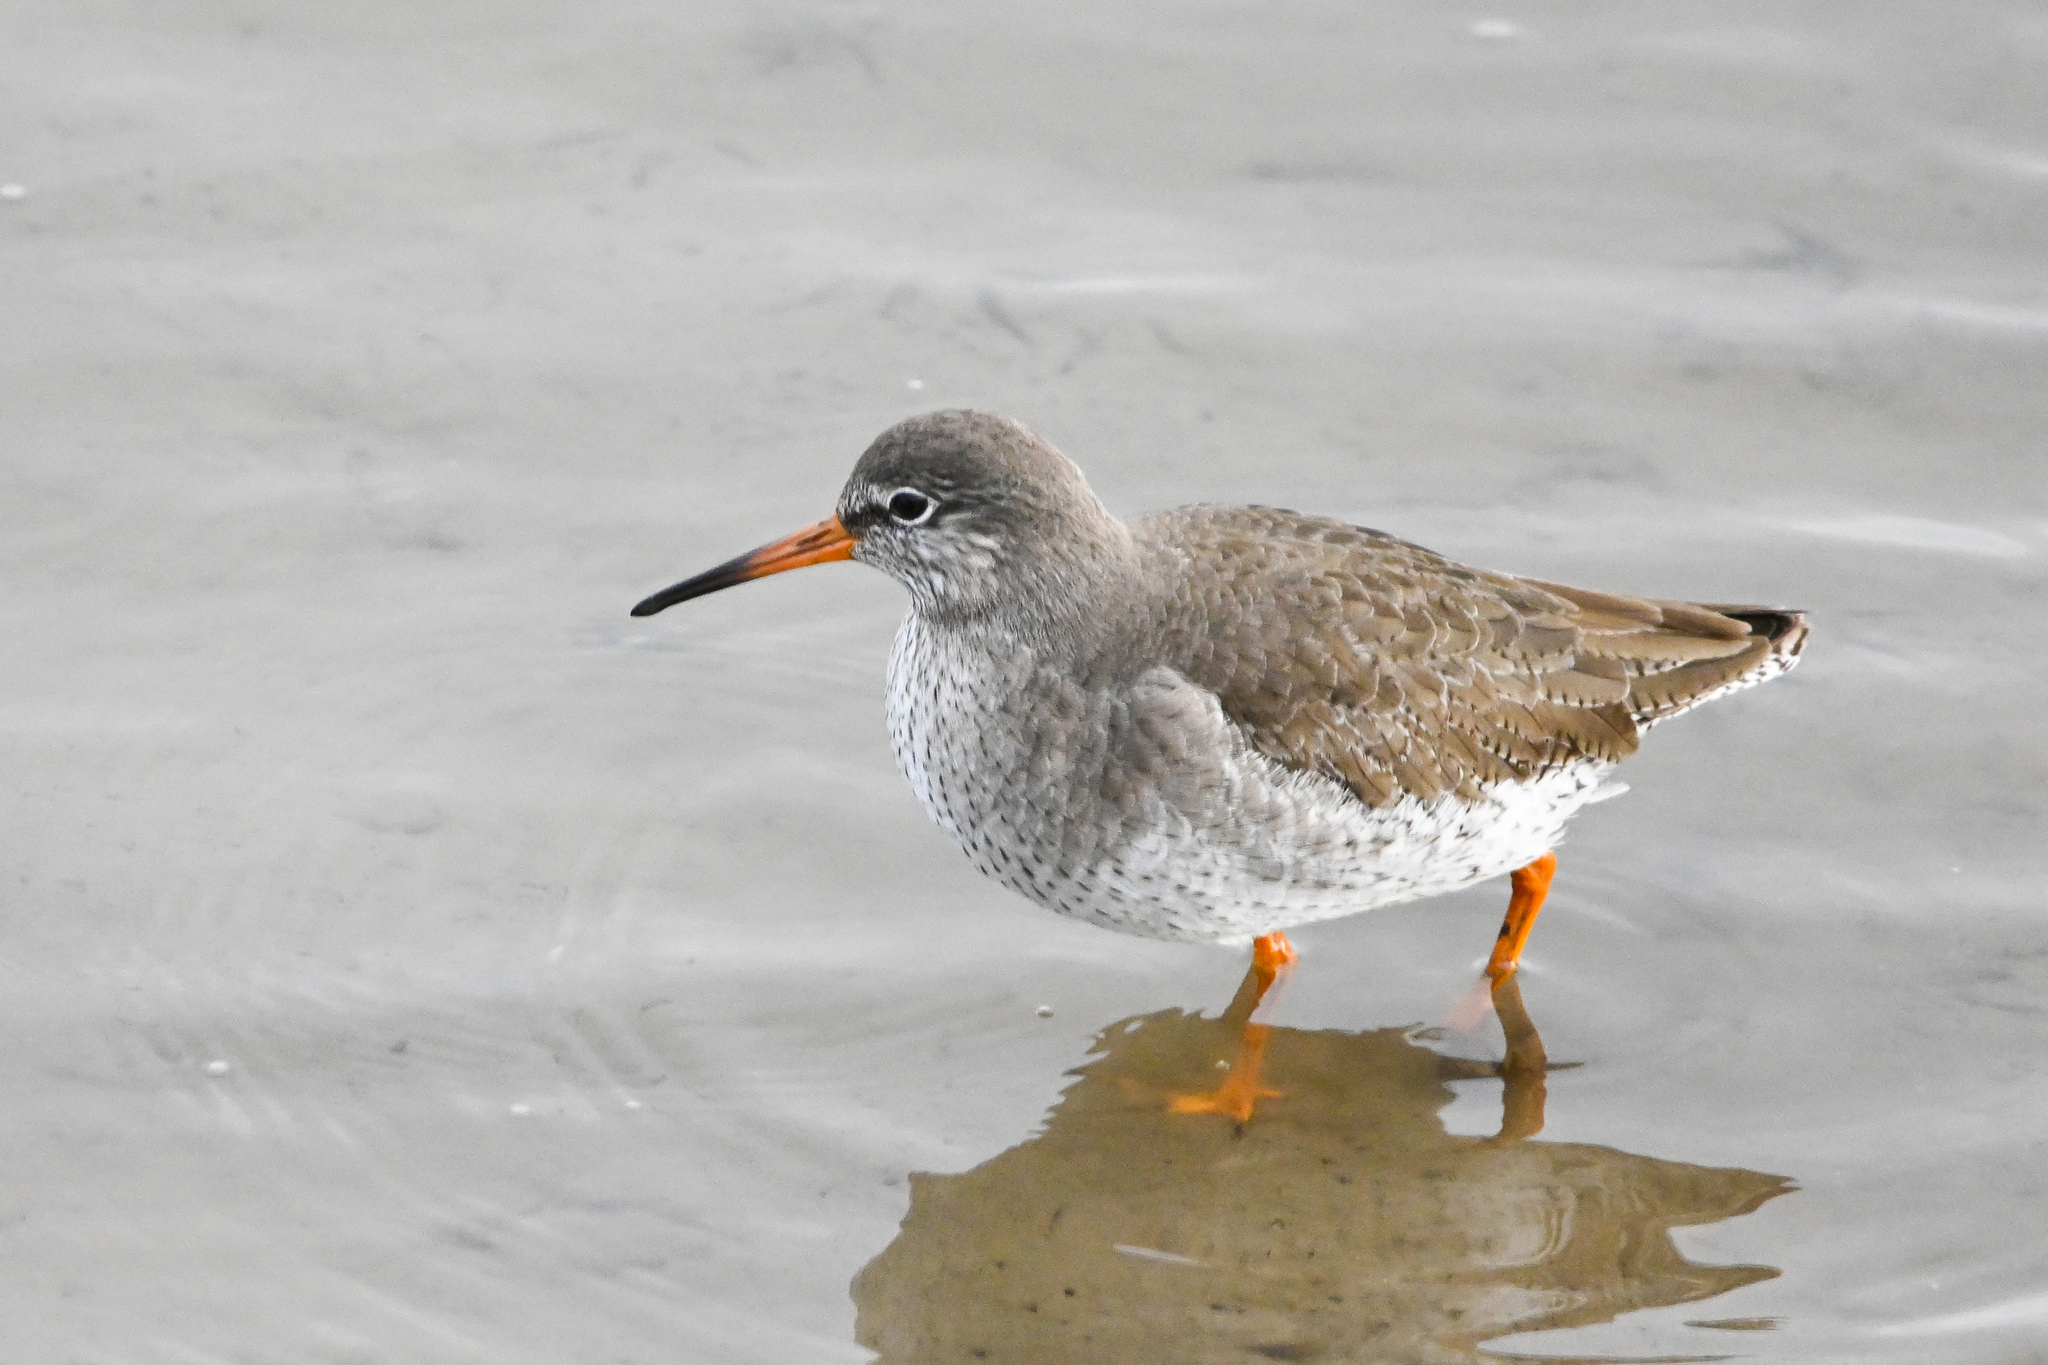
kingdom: Animalia
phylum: Chordata
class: Aves
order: Charadriiformes
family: Scolopacidae
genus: Tringa
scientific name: Tringa totanus
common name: Common redshank
